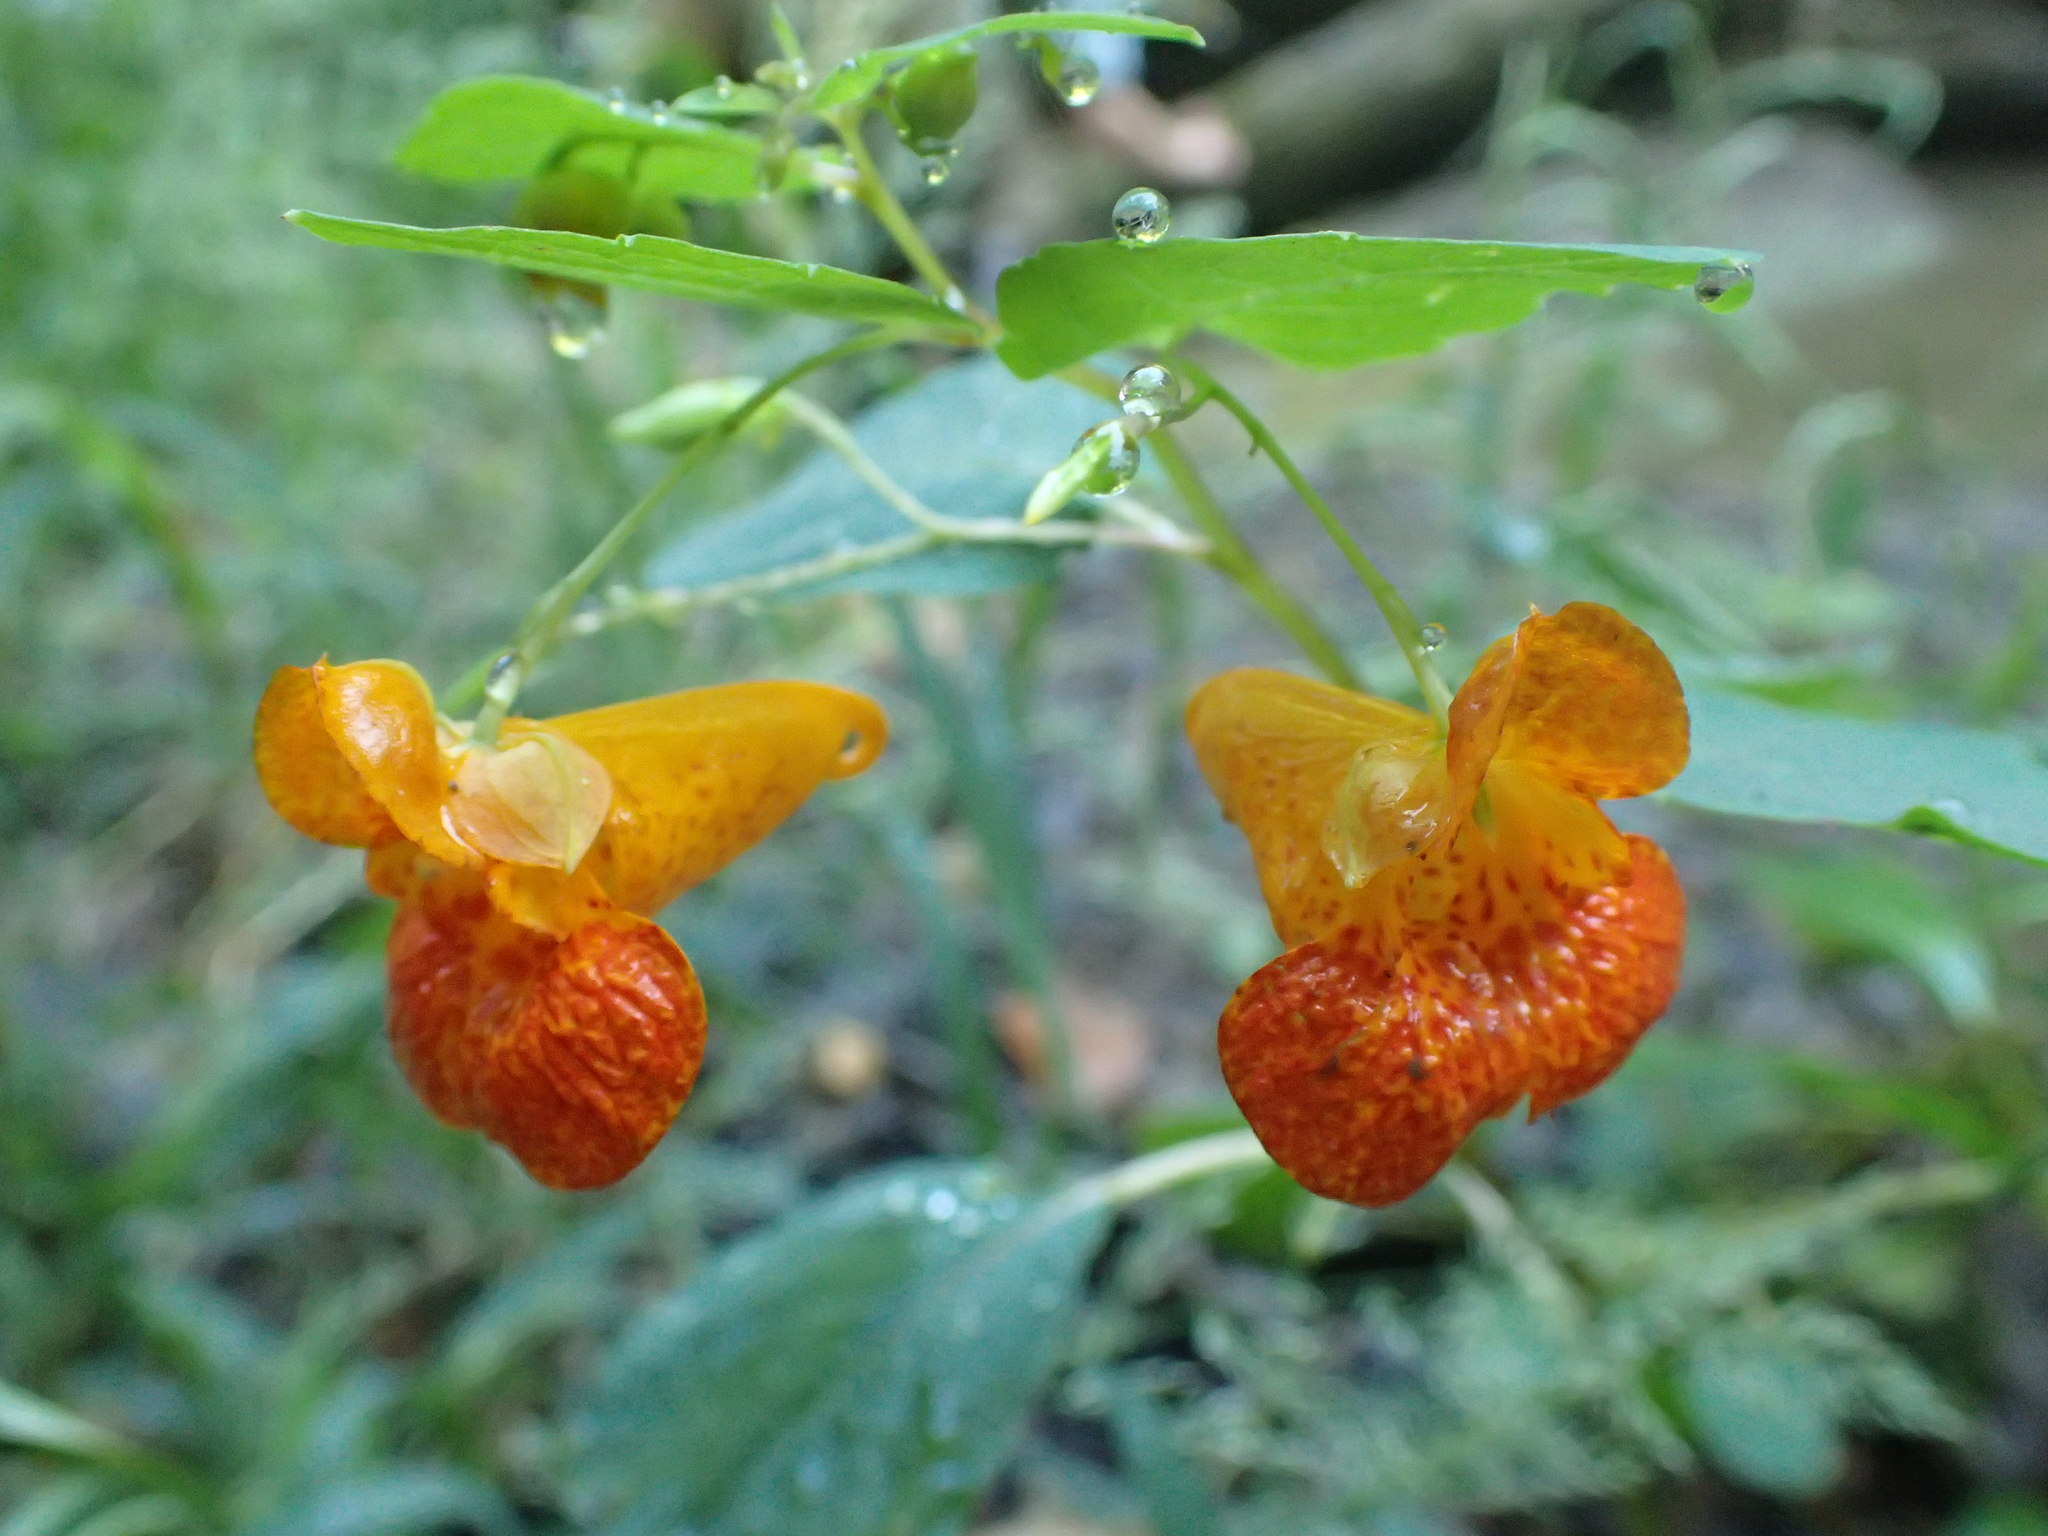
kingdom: Plantae
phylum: Tracheophyta
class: Magnoliopsida
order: Ericales
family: Balsaminaceae
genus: Impatiens
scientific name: Impatiens capensis
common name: Orange balsam
